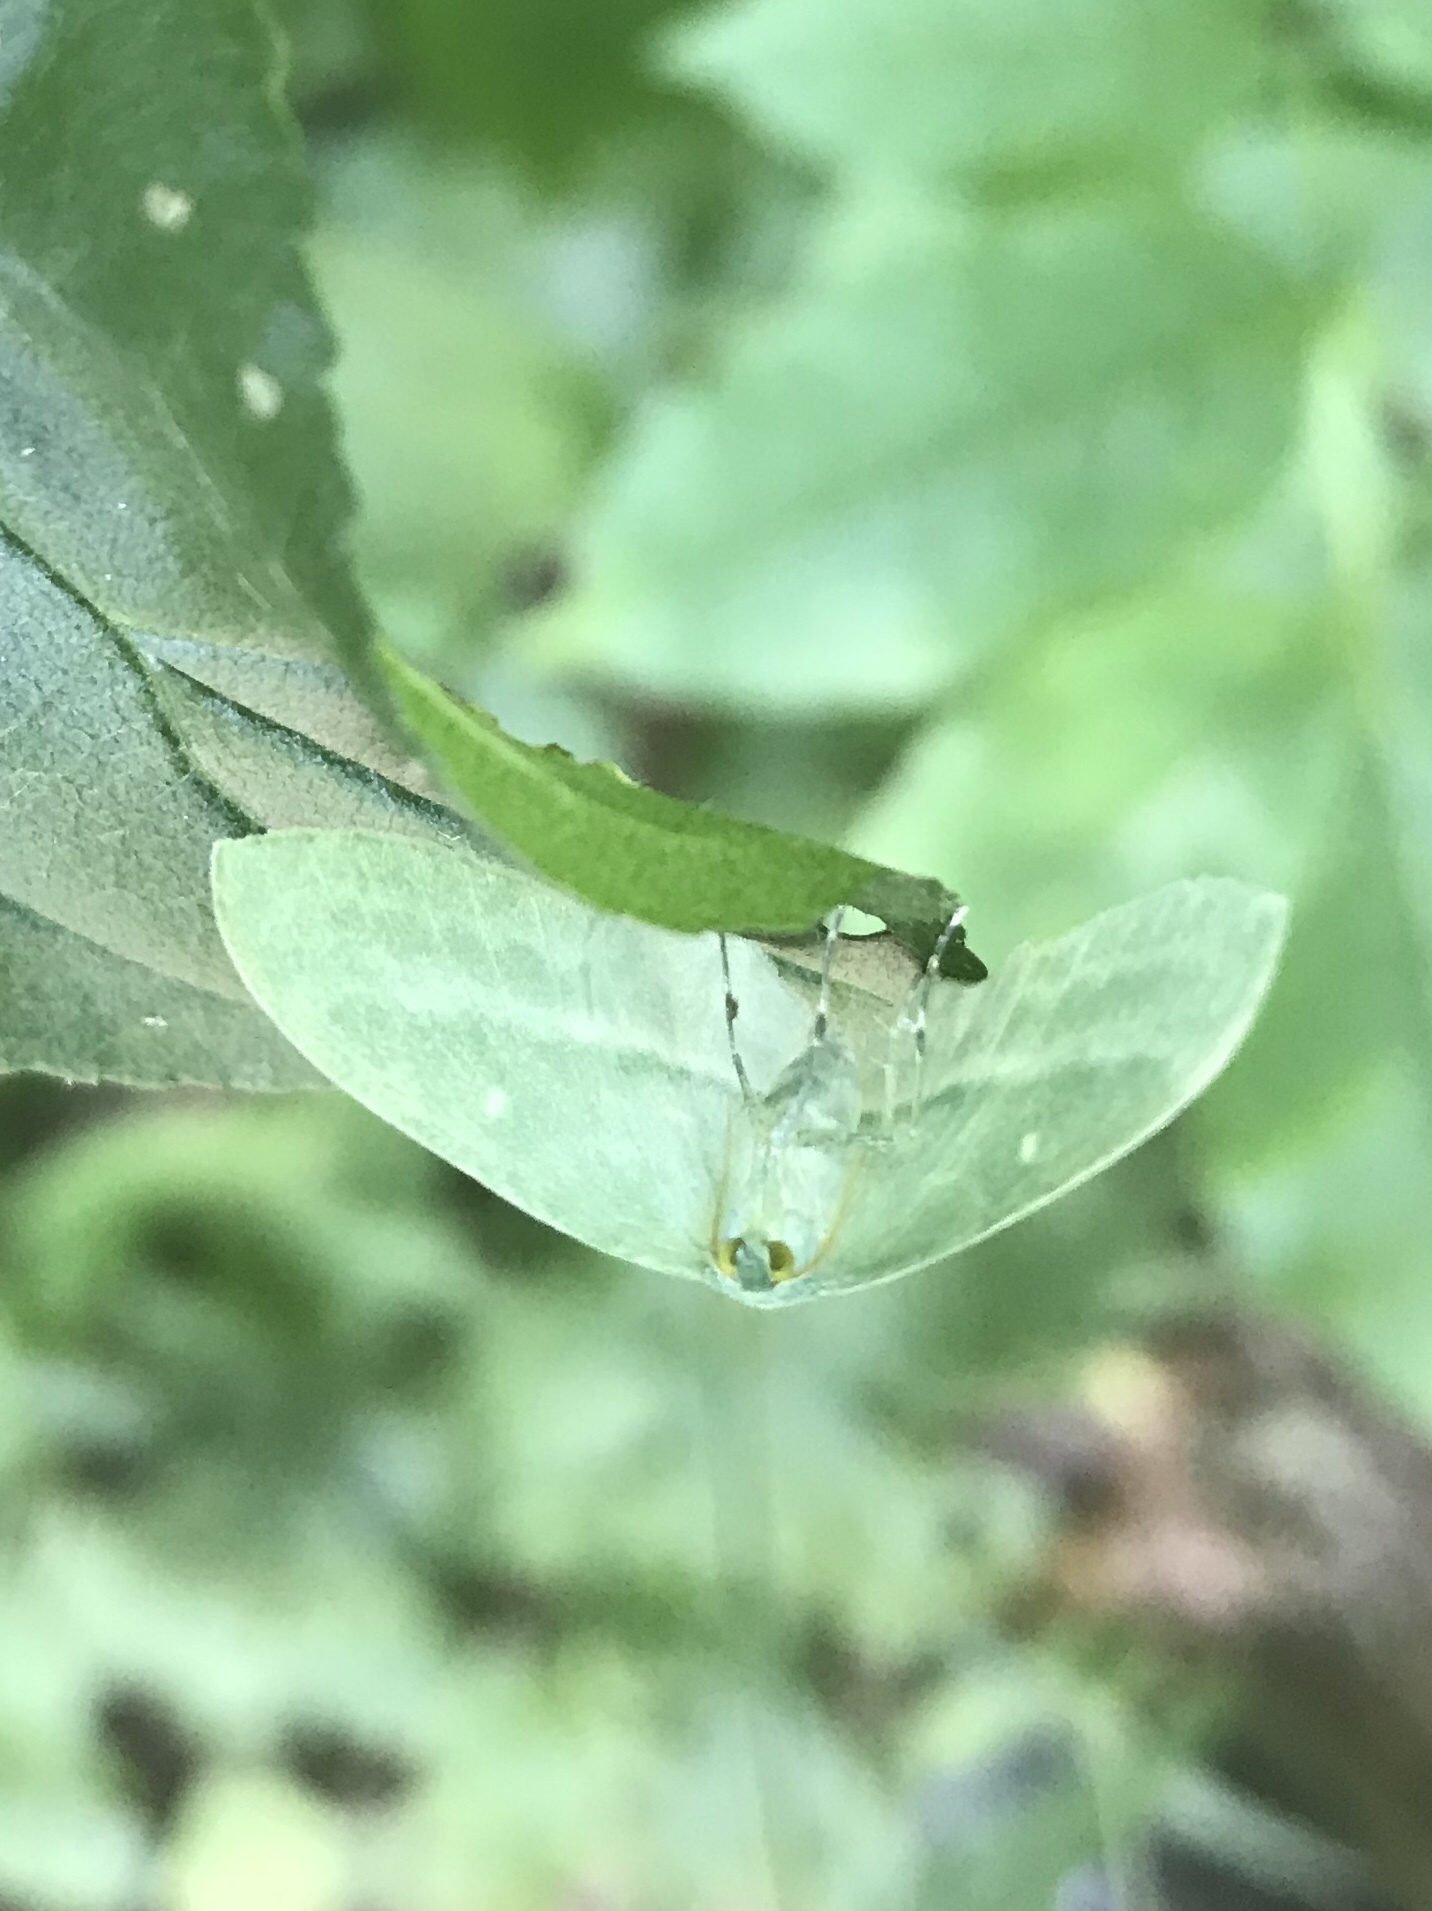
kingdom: Animalia
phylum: Arthropoda
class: Insecta
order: Lepidoptera
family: Geometridae
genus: Dyspteris
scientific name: Dyspteris abortivaria
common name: Bad-wing
